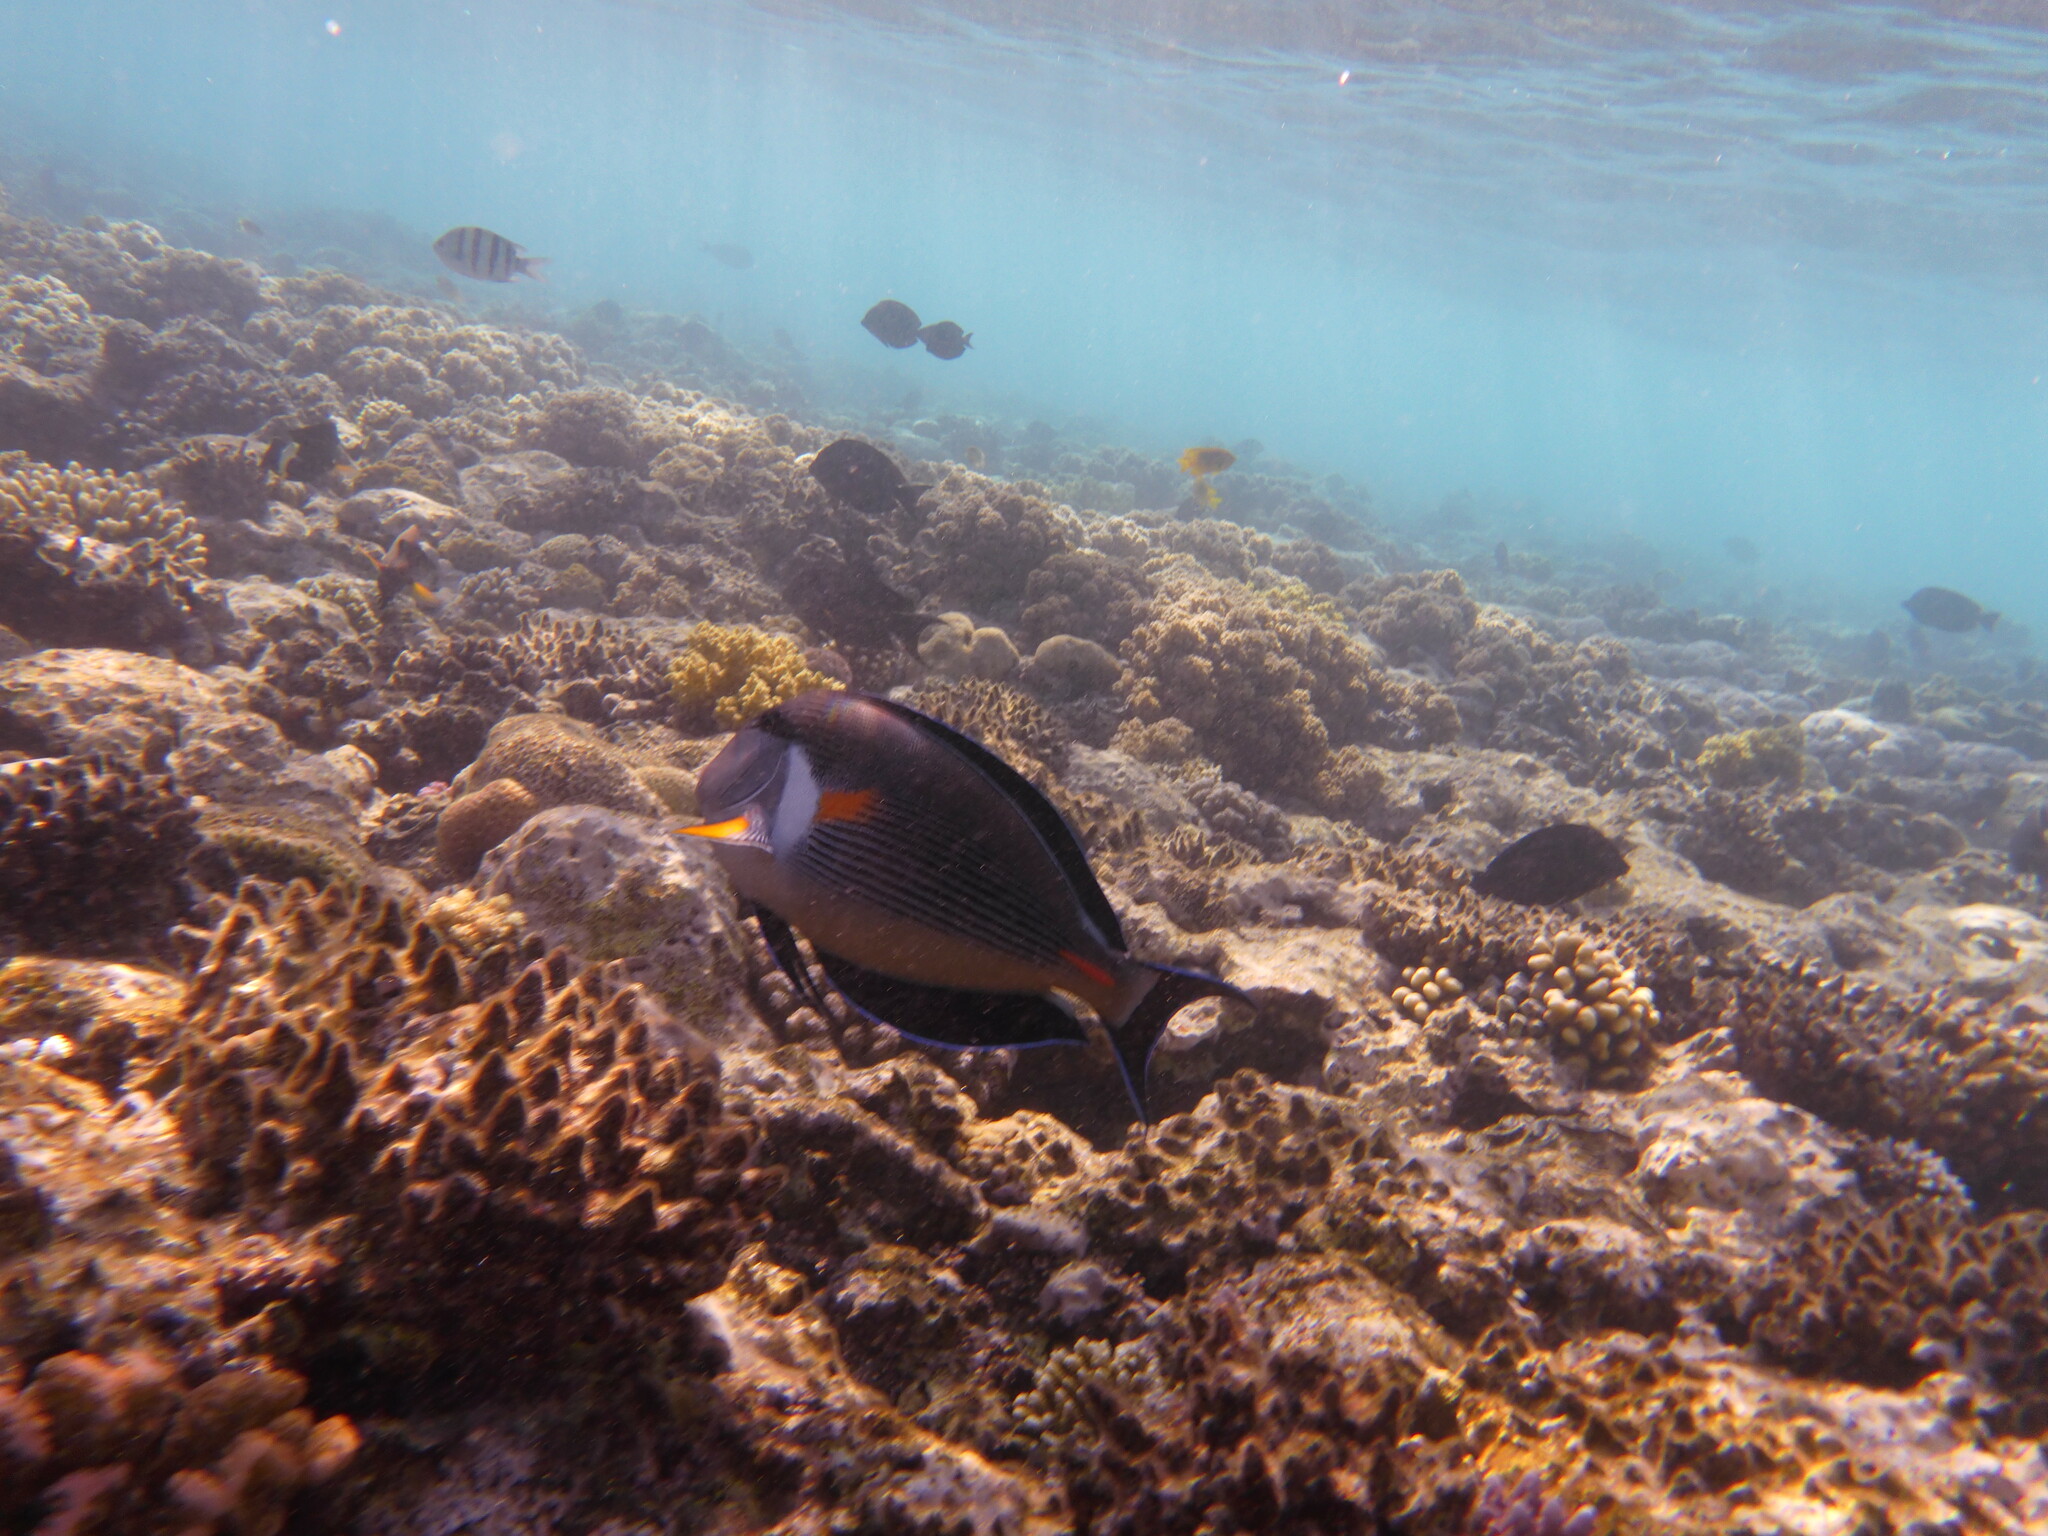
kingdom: Animalia
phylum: Chordata
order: Perciformes
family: Acanthuridae
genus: Acanthurus
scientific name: Acanthurus sohal
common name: Red sea surgeonfish
